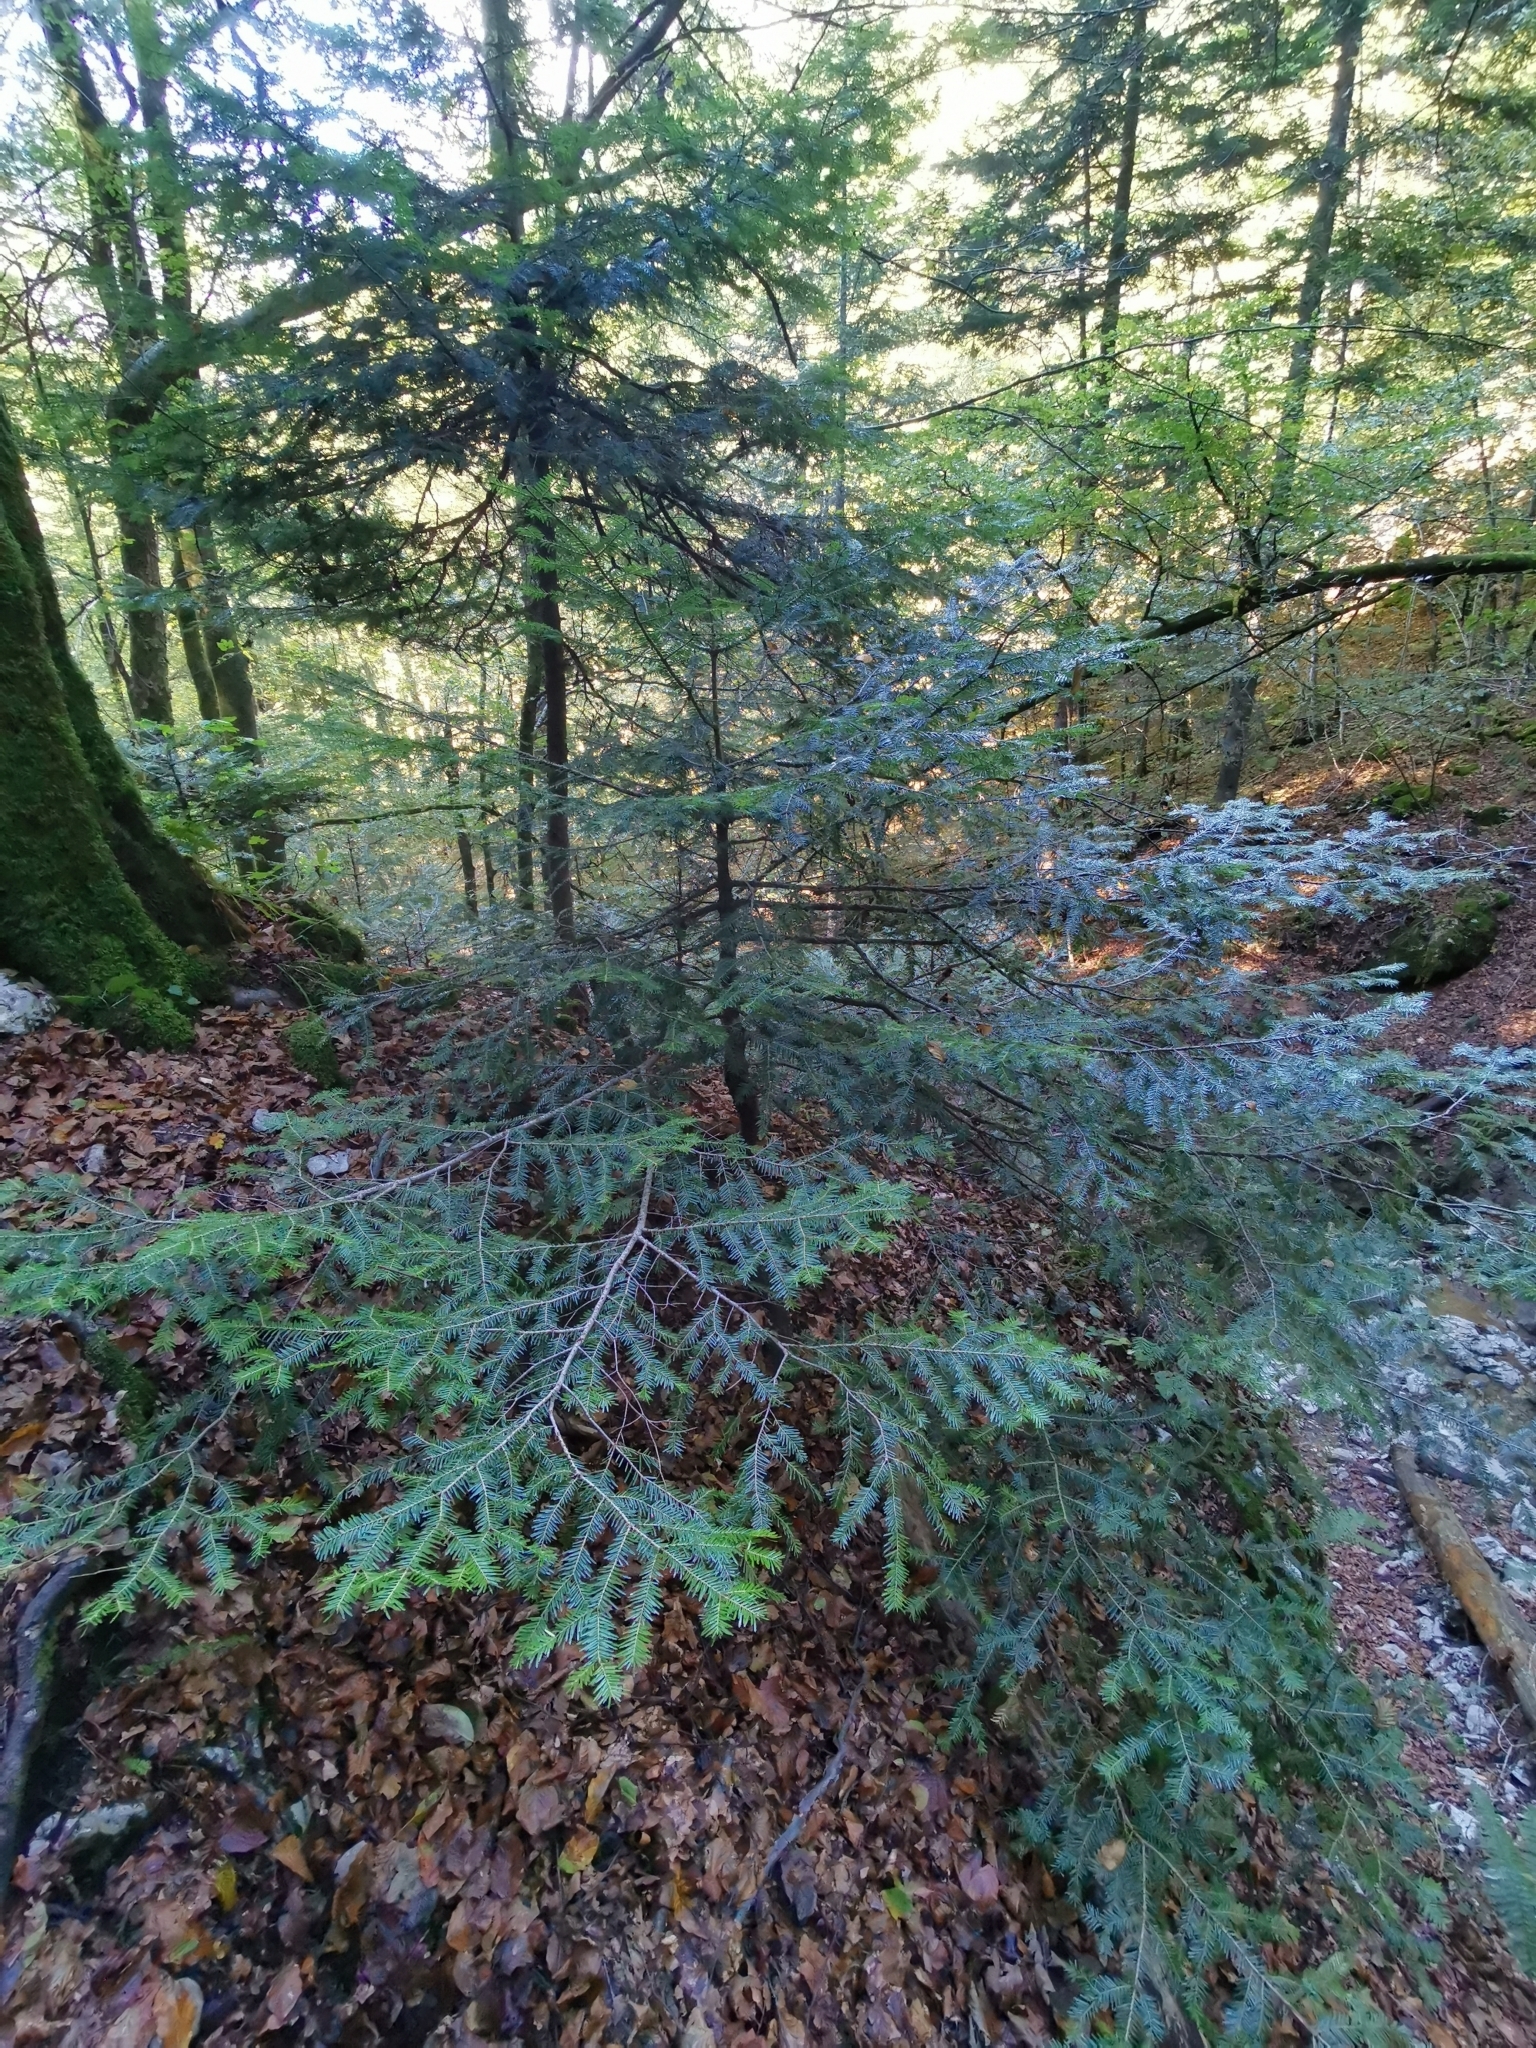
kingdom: Plantae
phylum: Tracheophyta
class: Pinopsida
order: Pinales
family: Pinaceae
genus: Abies
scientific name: Abies alba
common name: Silver fir
